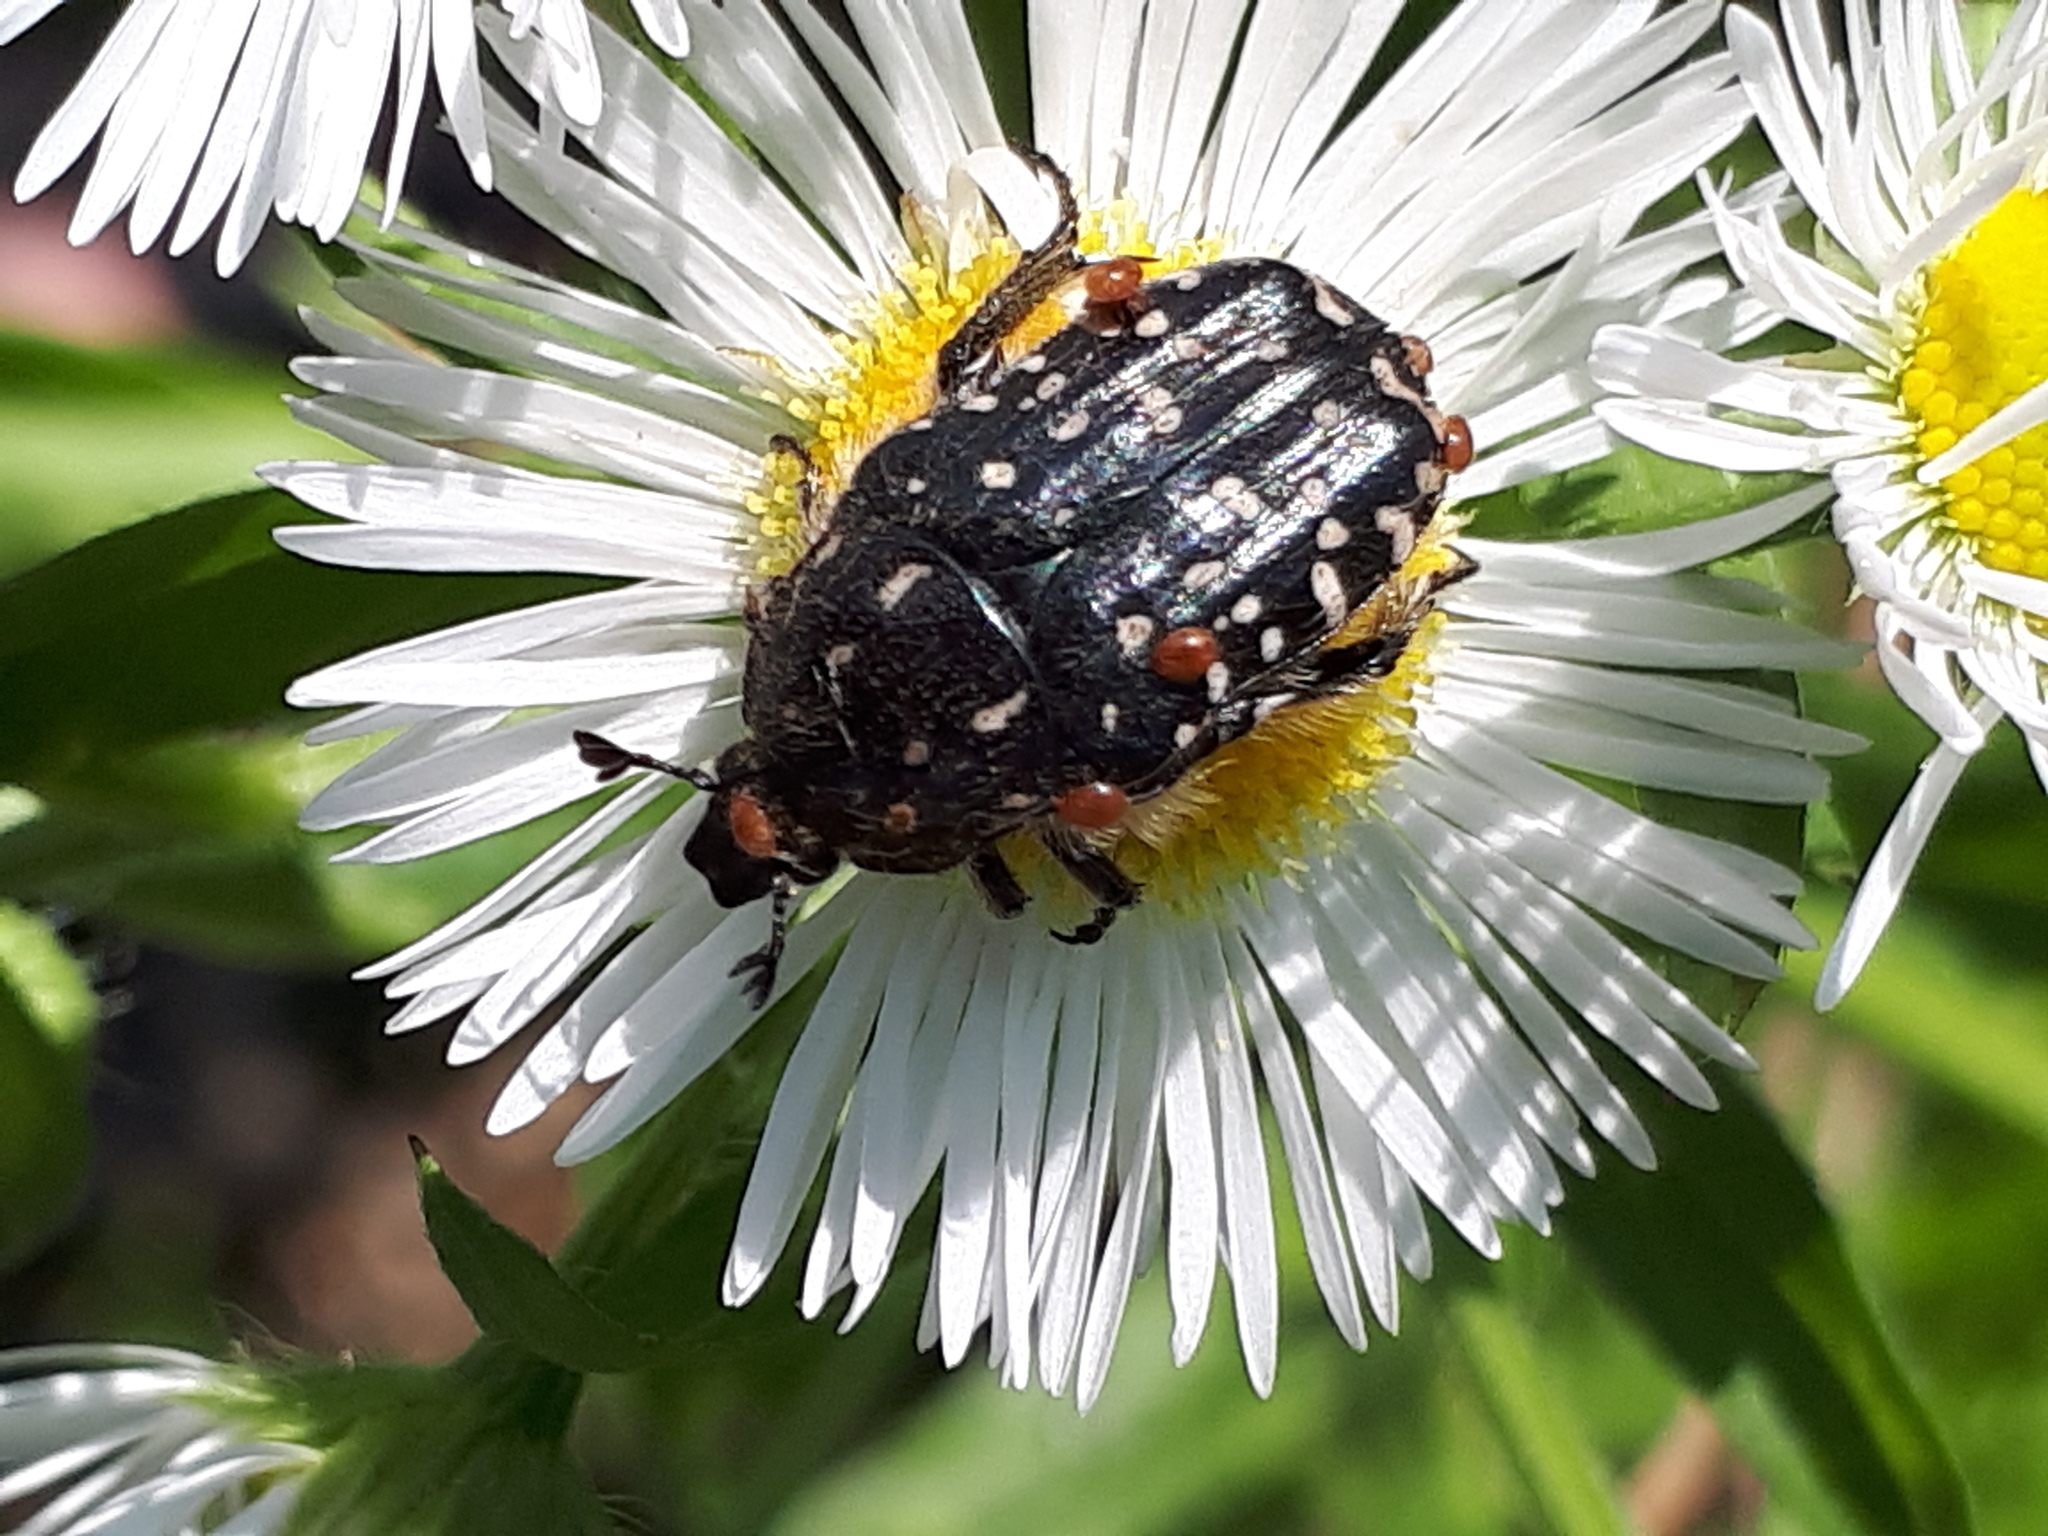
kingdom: Animalia
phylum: Arthropoda
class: Insecta
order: Coleoptera
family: Scarabaeidae
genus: Oxythyrea
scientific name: Oxythyrea funesta
